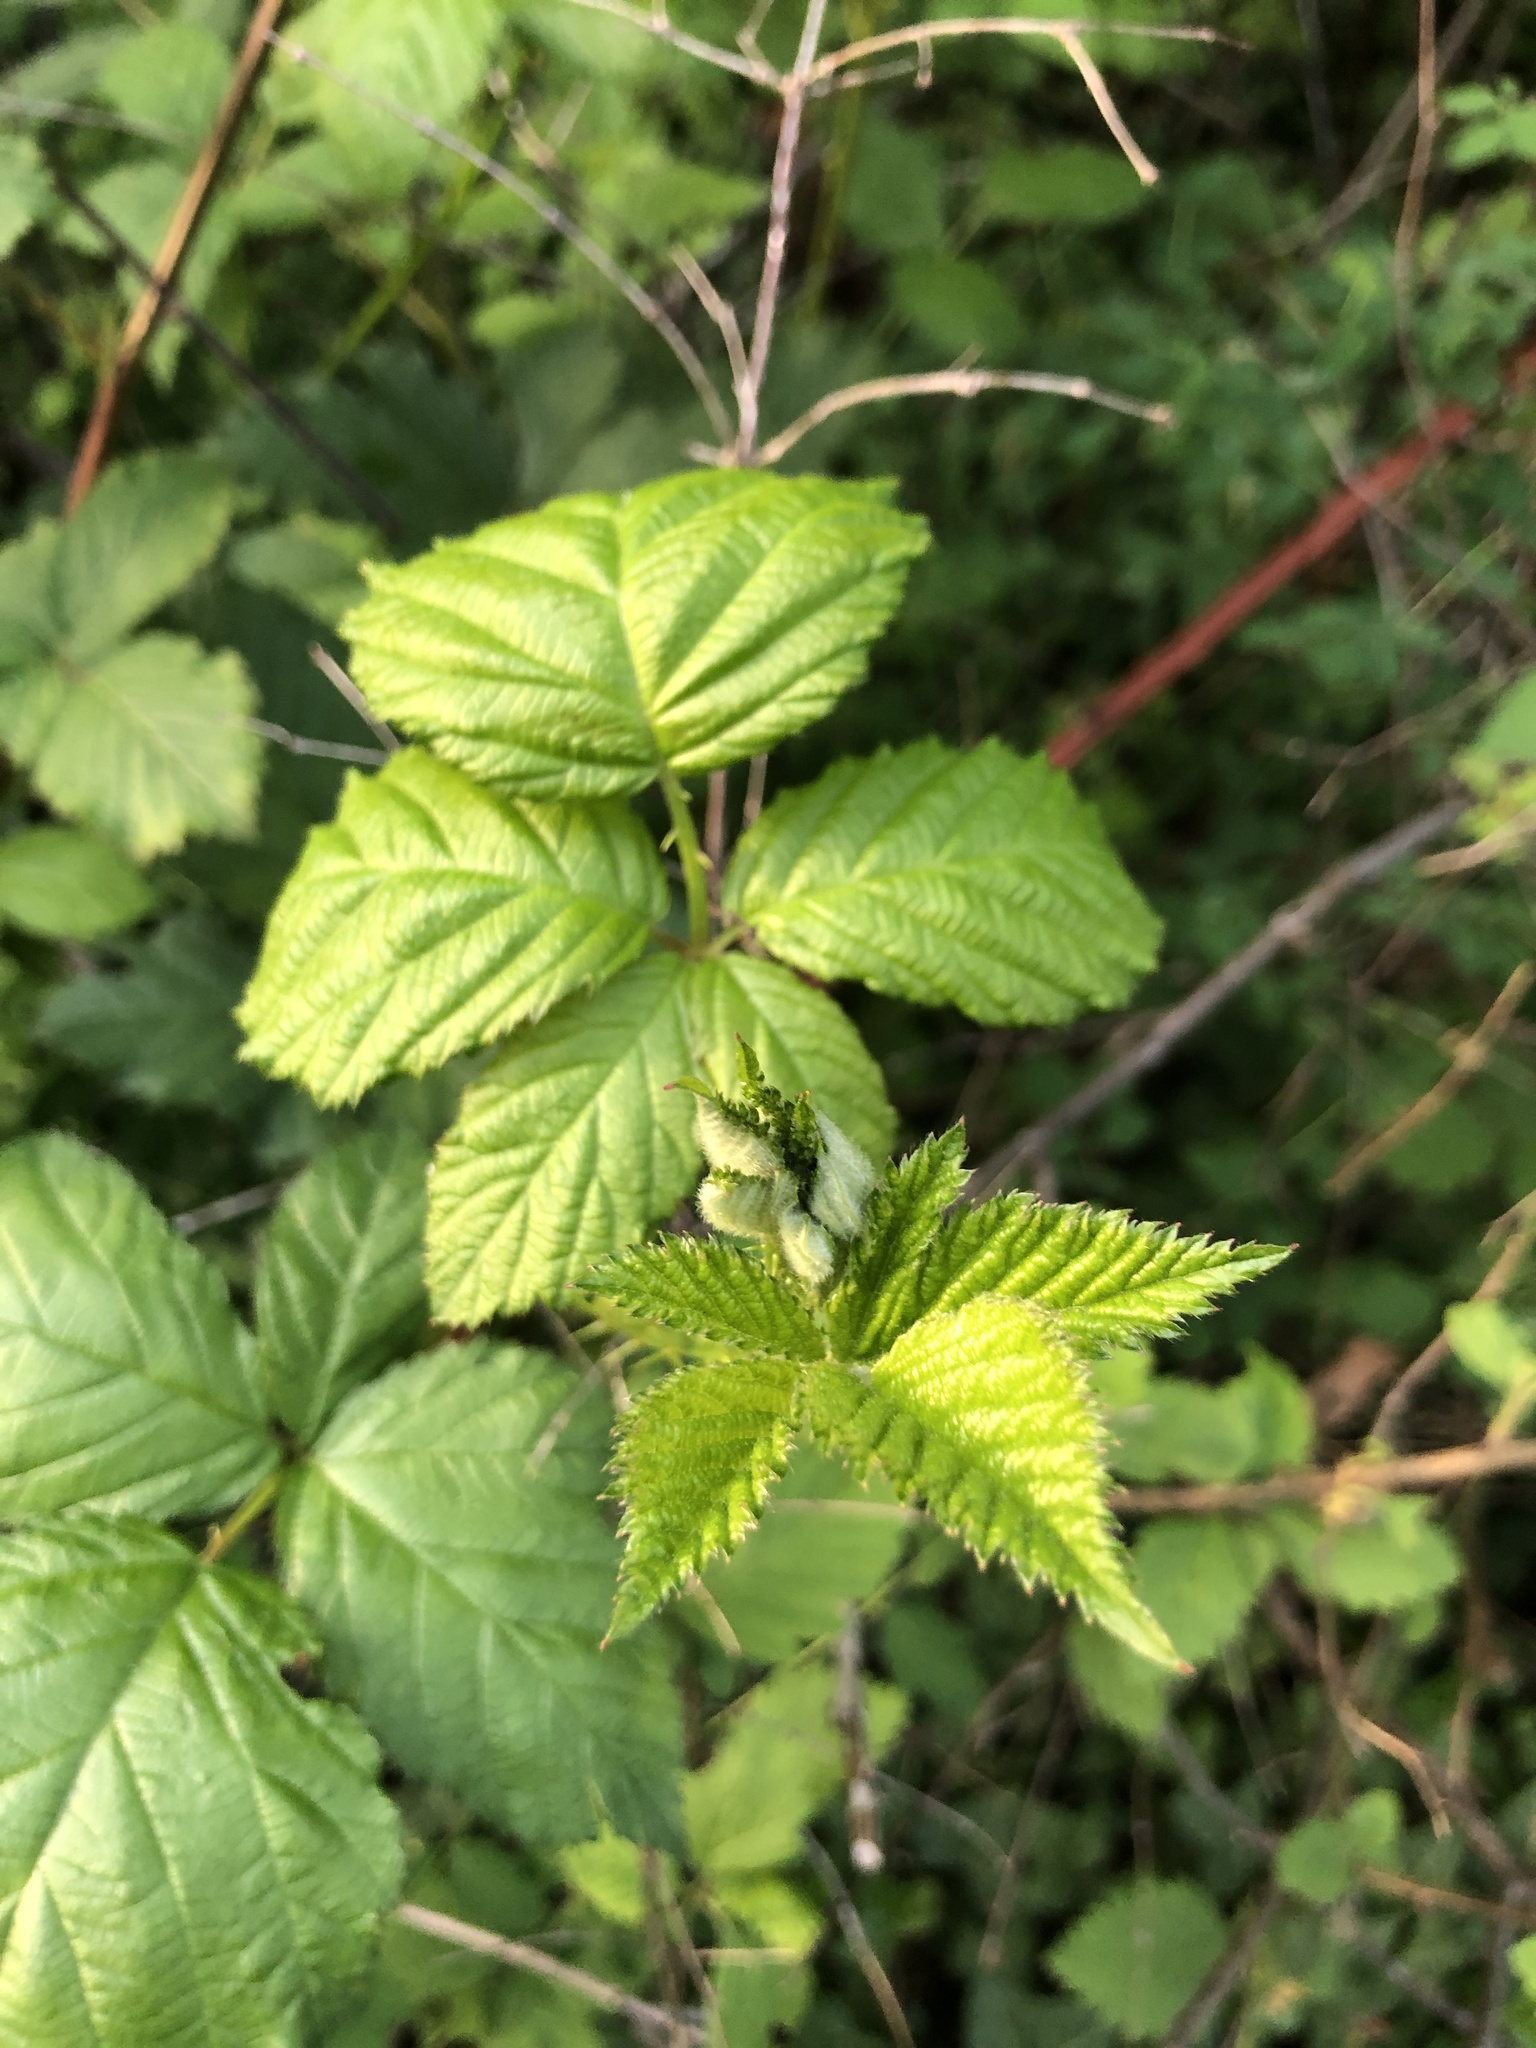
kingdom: Plantae
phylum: Tracheophyta
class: Magnoliopsida
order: Rosales
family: Rosaceae
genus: Rubus
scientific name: Rubus bifrons
